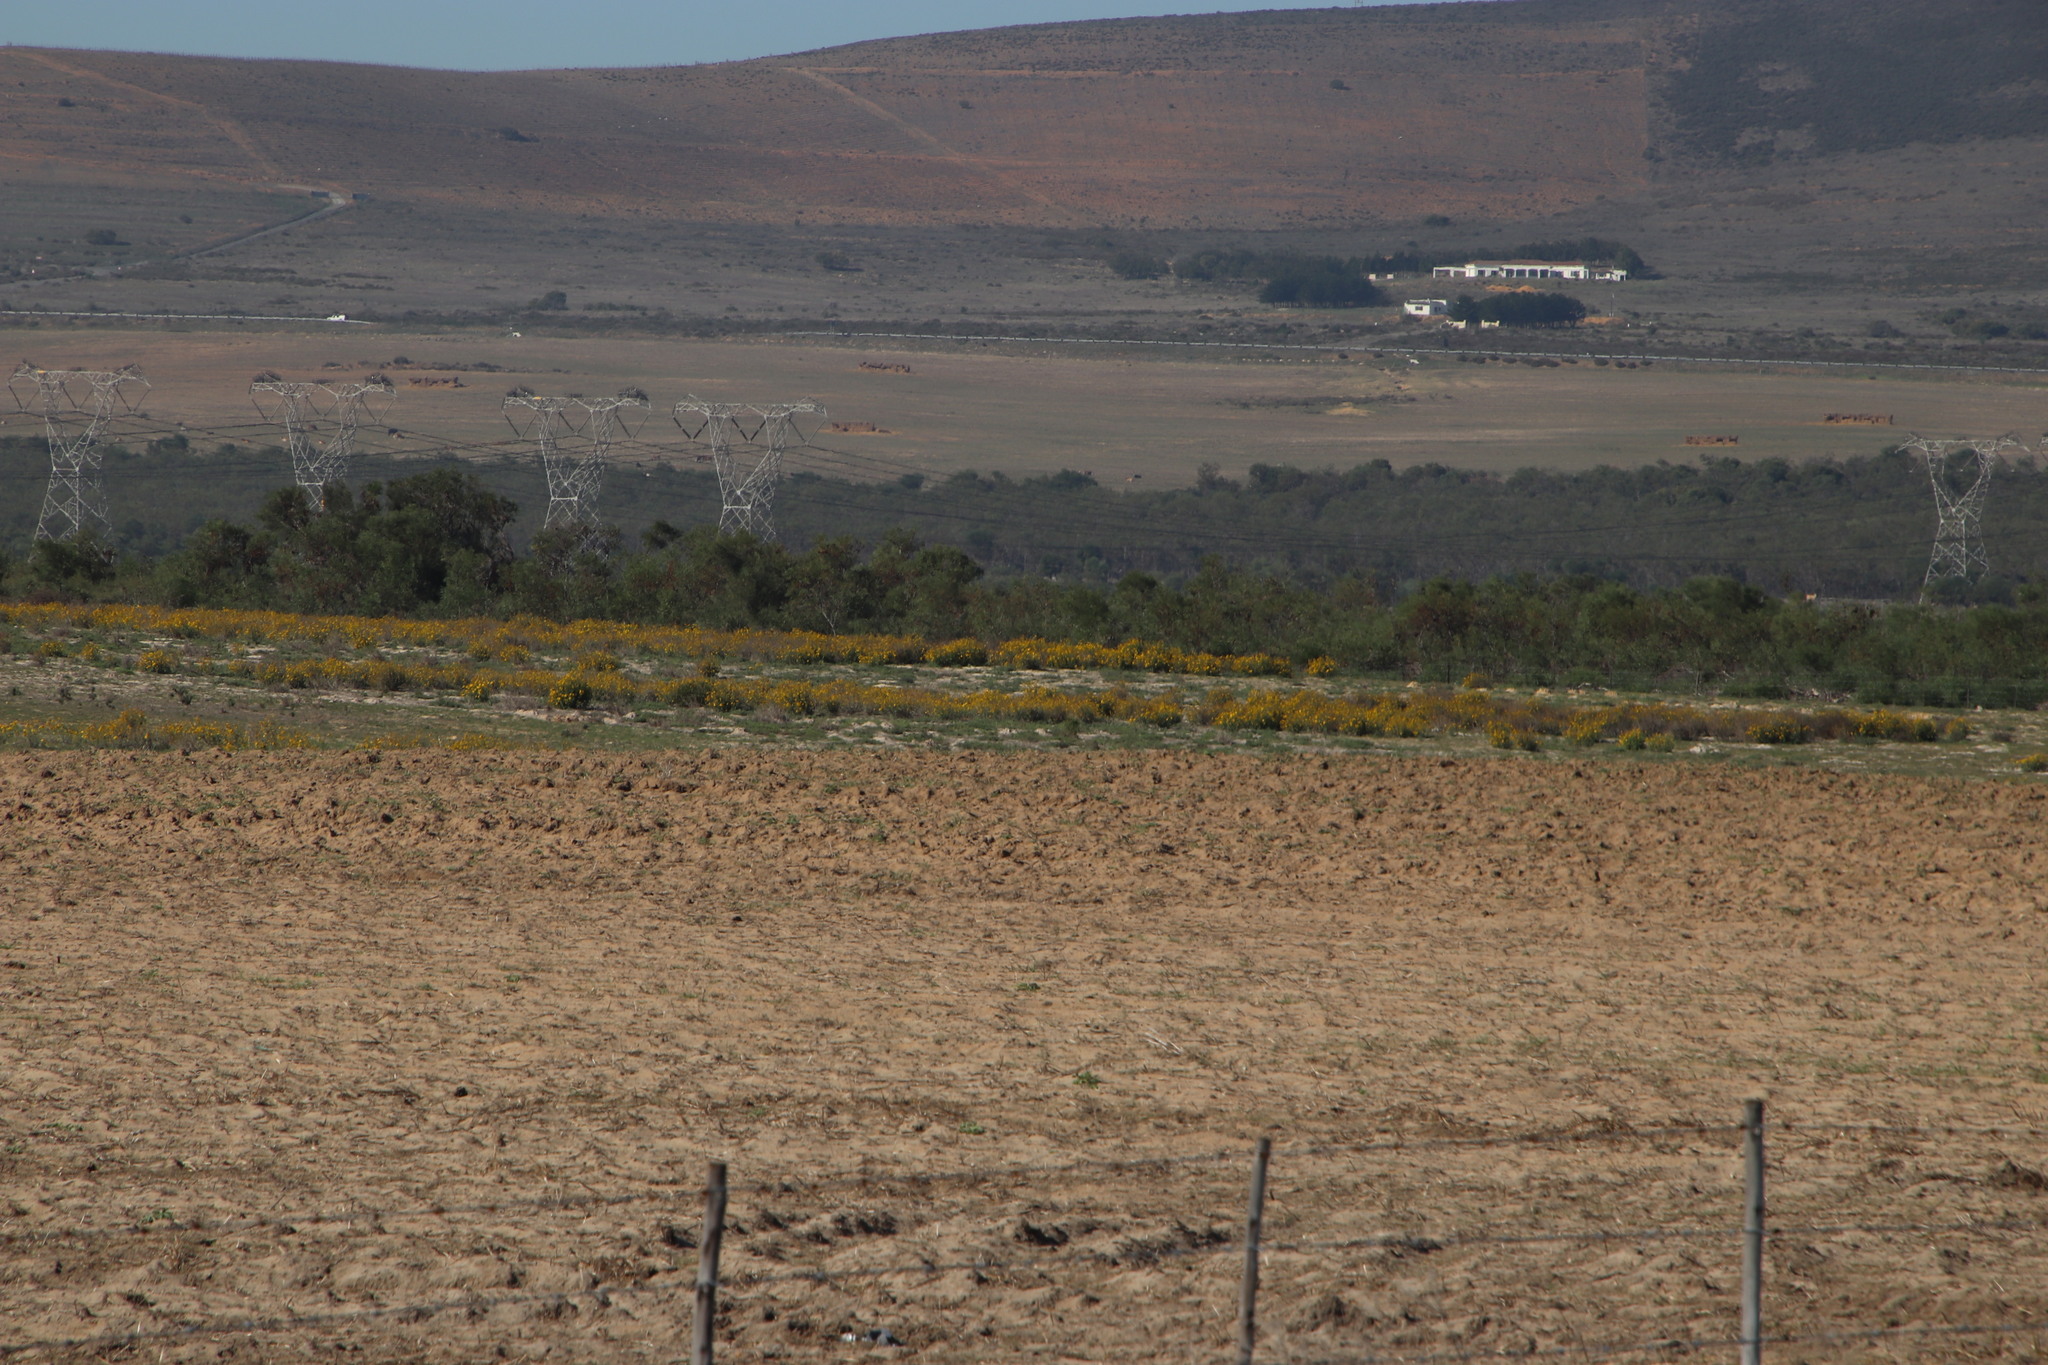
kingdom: Plantae
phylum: Tracheophyta
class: Magnoliopsida
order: Asterales
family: Asteraceae
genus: Verbesina
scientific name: Verbesina encelioides
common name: Golden crownbeard
